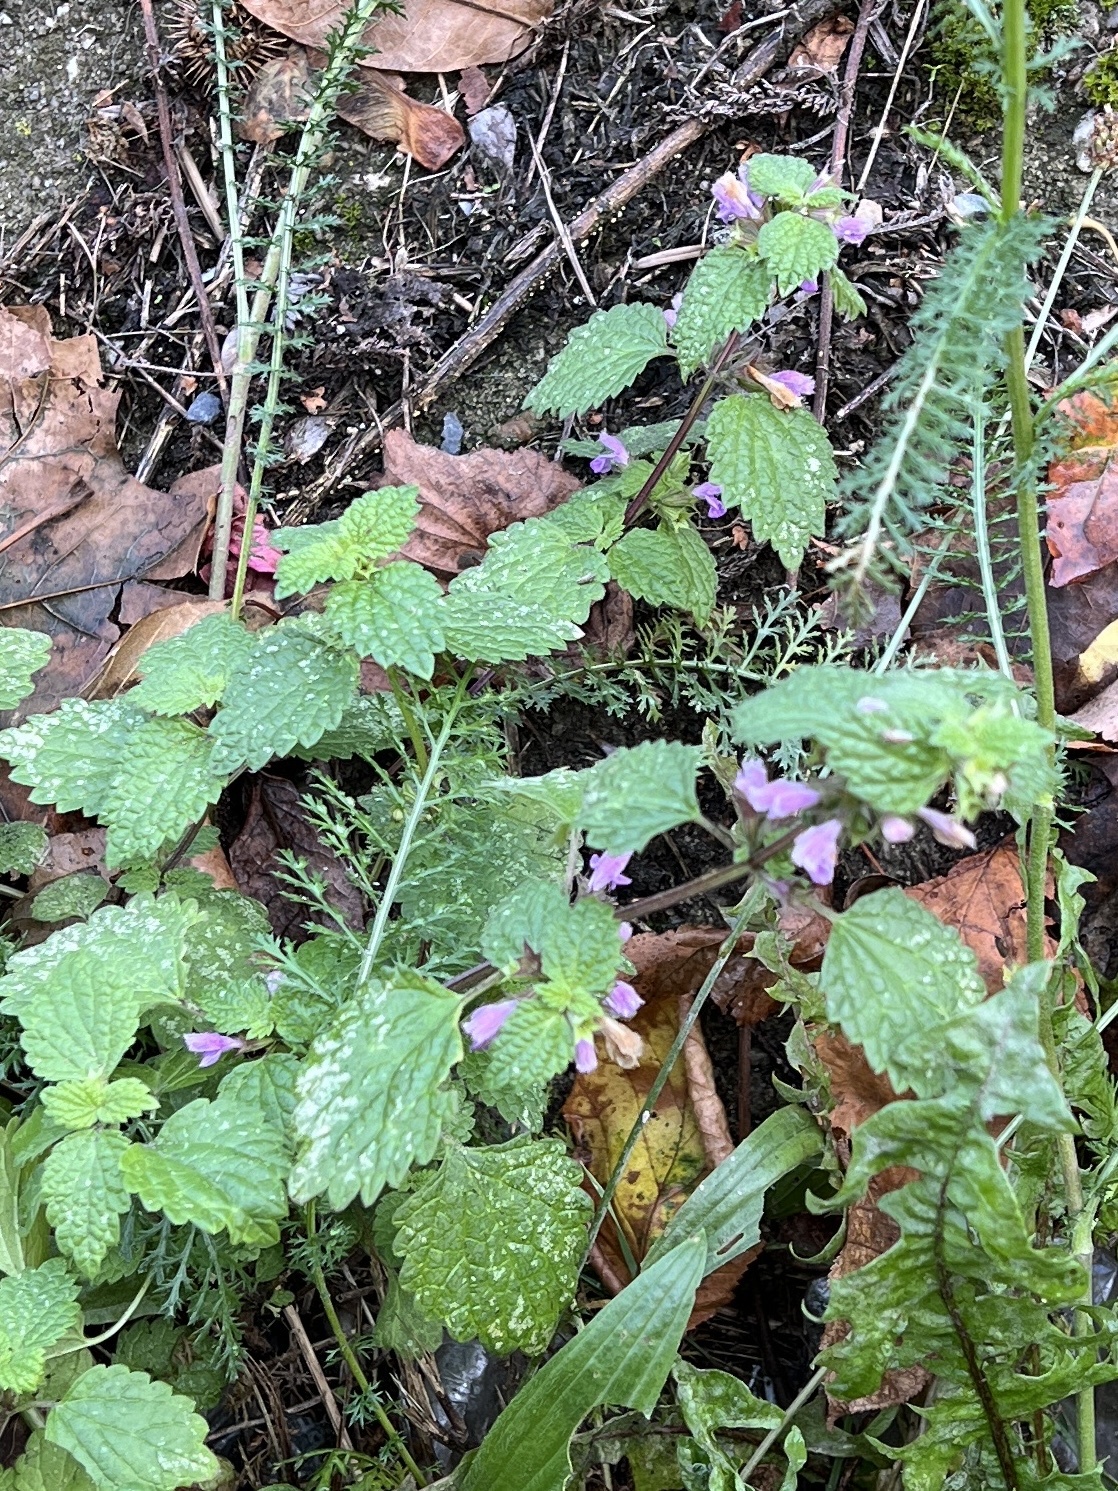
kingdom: Plantae
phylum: Tracheophyta
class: Magnoliopsida
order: Lamiales
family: Lamiaceae
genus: Ballota
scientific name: Ballota nigra
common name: Black horehound
